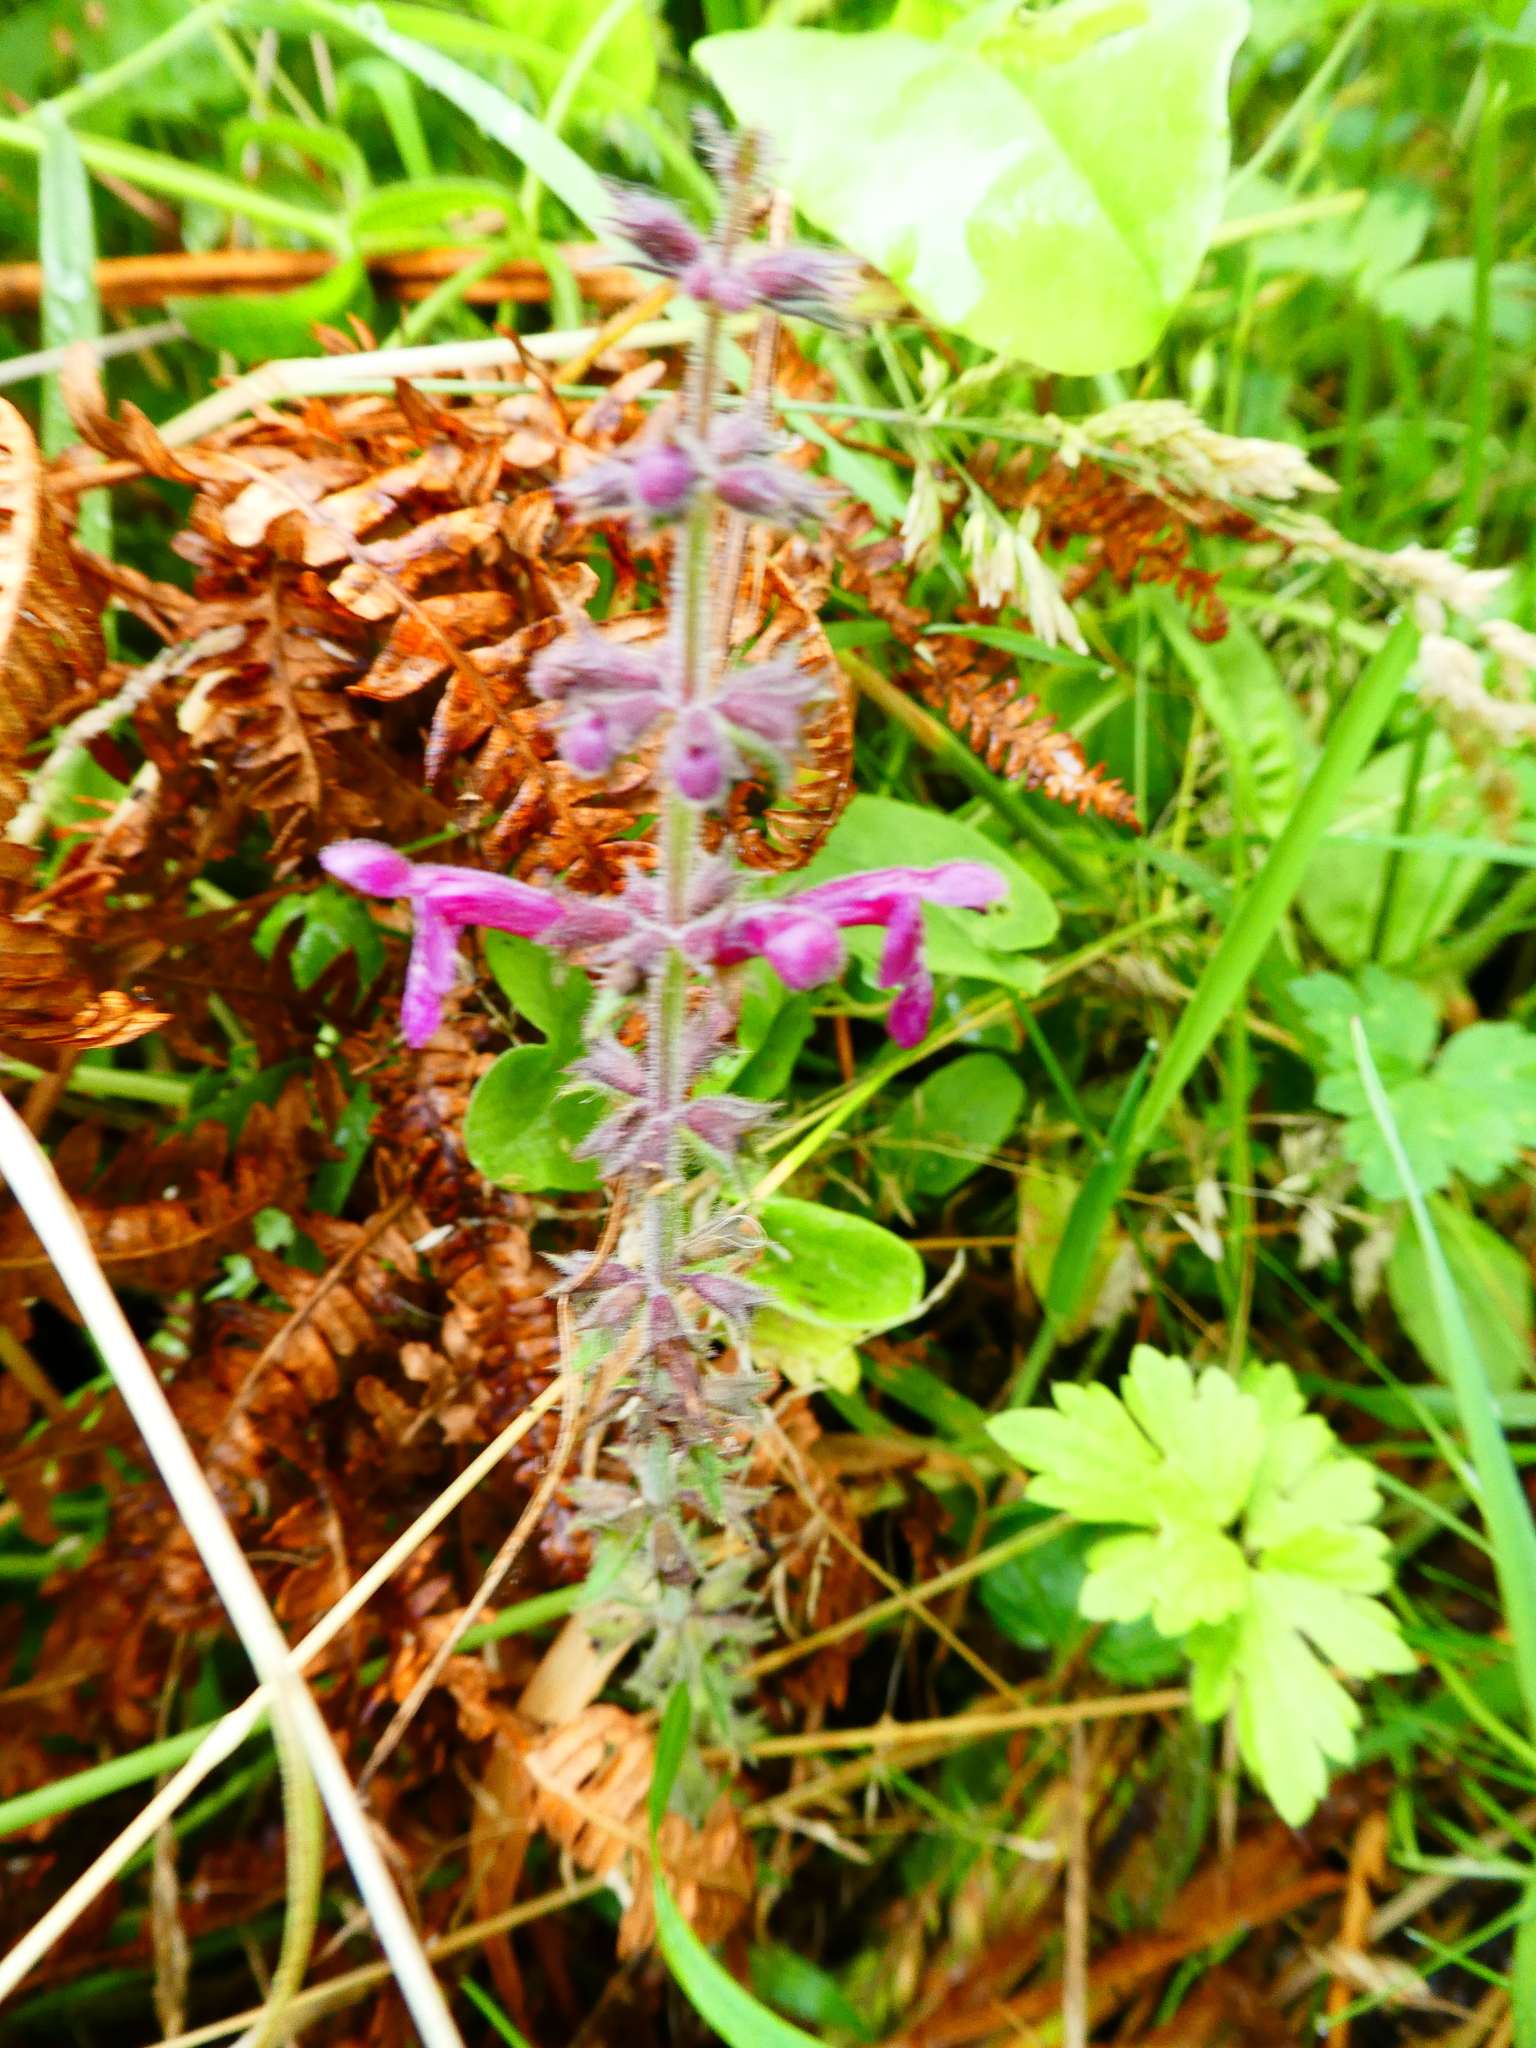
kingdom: Plantae
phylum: Tracheophyta
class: Magnoliopsida
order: Lamiales
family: Lamiaceae
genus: Stachys
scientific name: Stachys sylvatica
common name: Hedge woundwort
